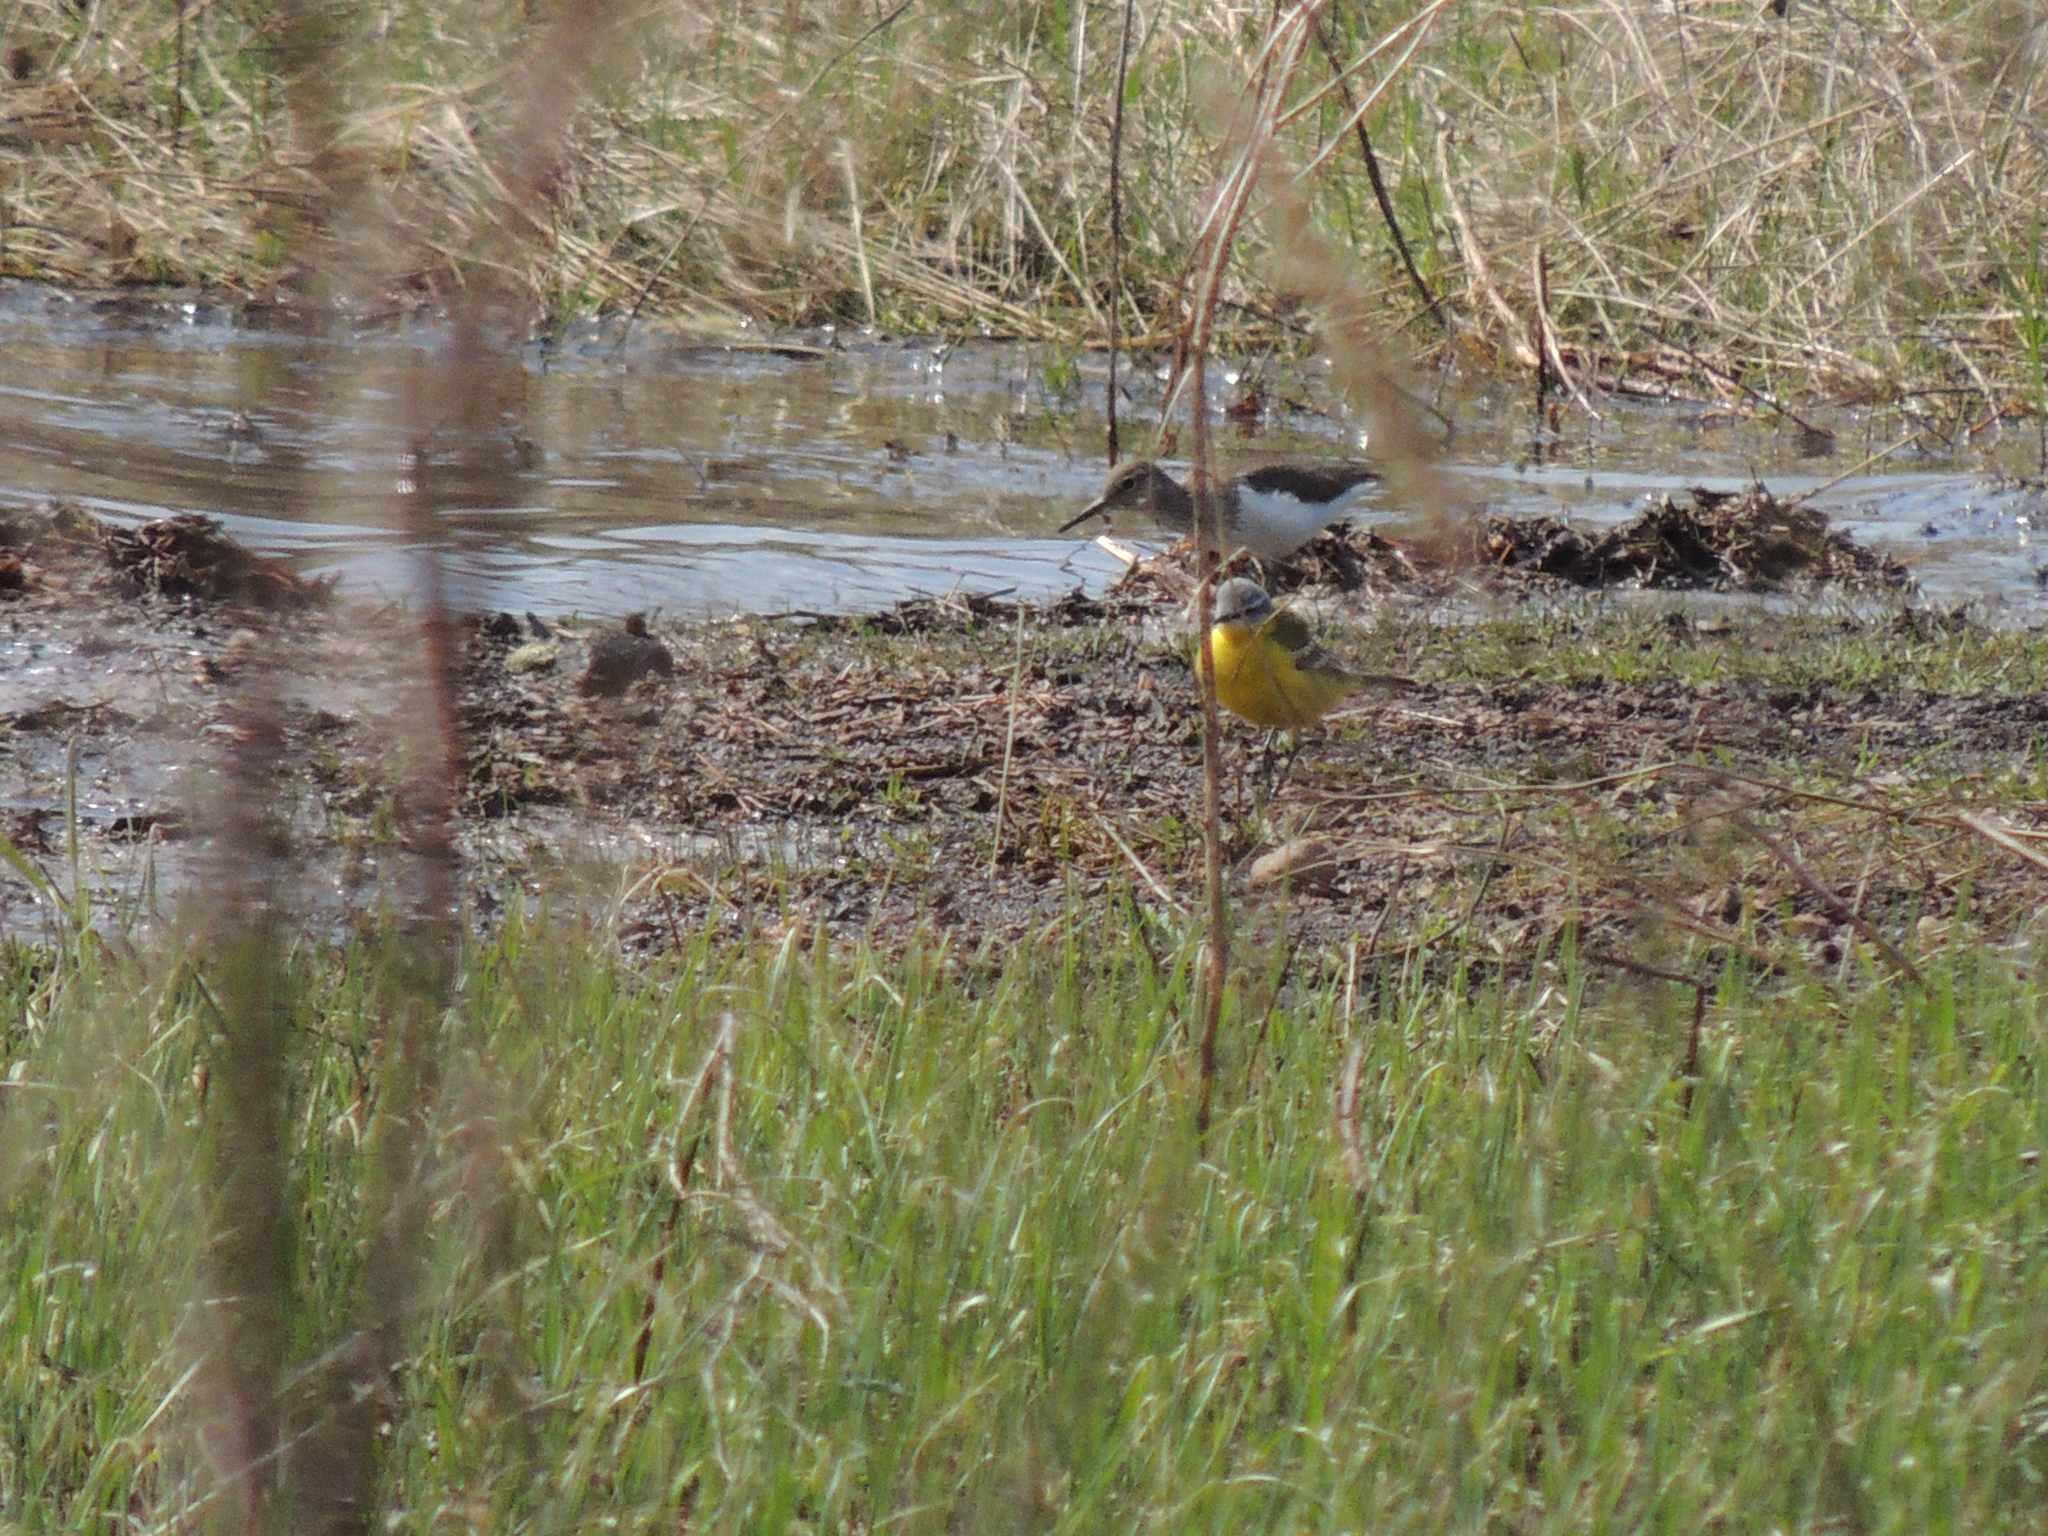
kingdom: Animalia
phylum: Chordata
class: Aves
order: Passeriformes
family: Motacillidae
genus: Motacilla
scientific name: Motacilla flava
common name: Western yellow wagtail
